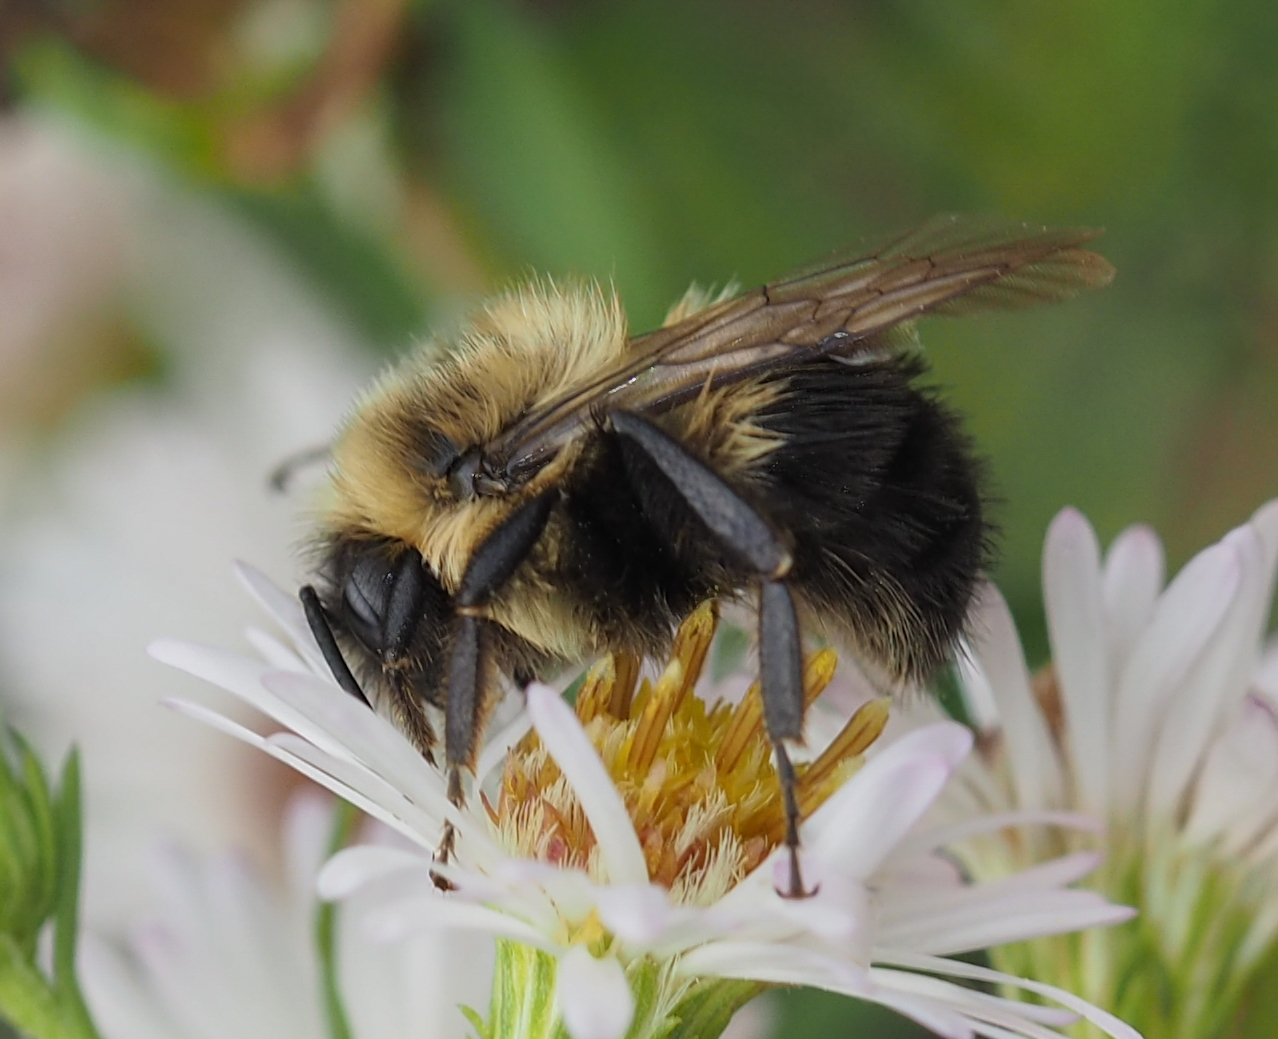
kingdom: Animalia
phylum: Arthropoda
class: Insecta
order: Hymenoptera
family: Apidae
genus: Bombus
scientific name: Bombus impatiens
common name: Common eastern bumble bee
